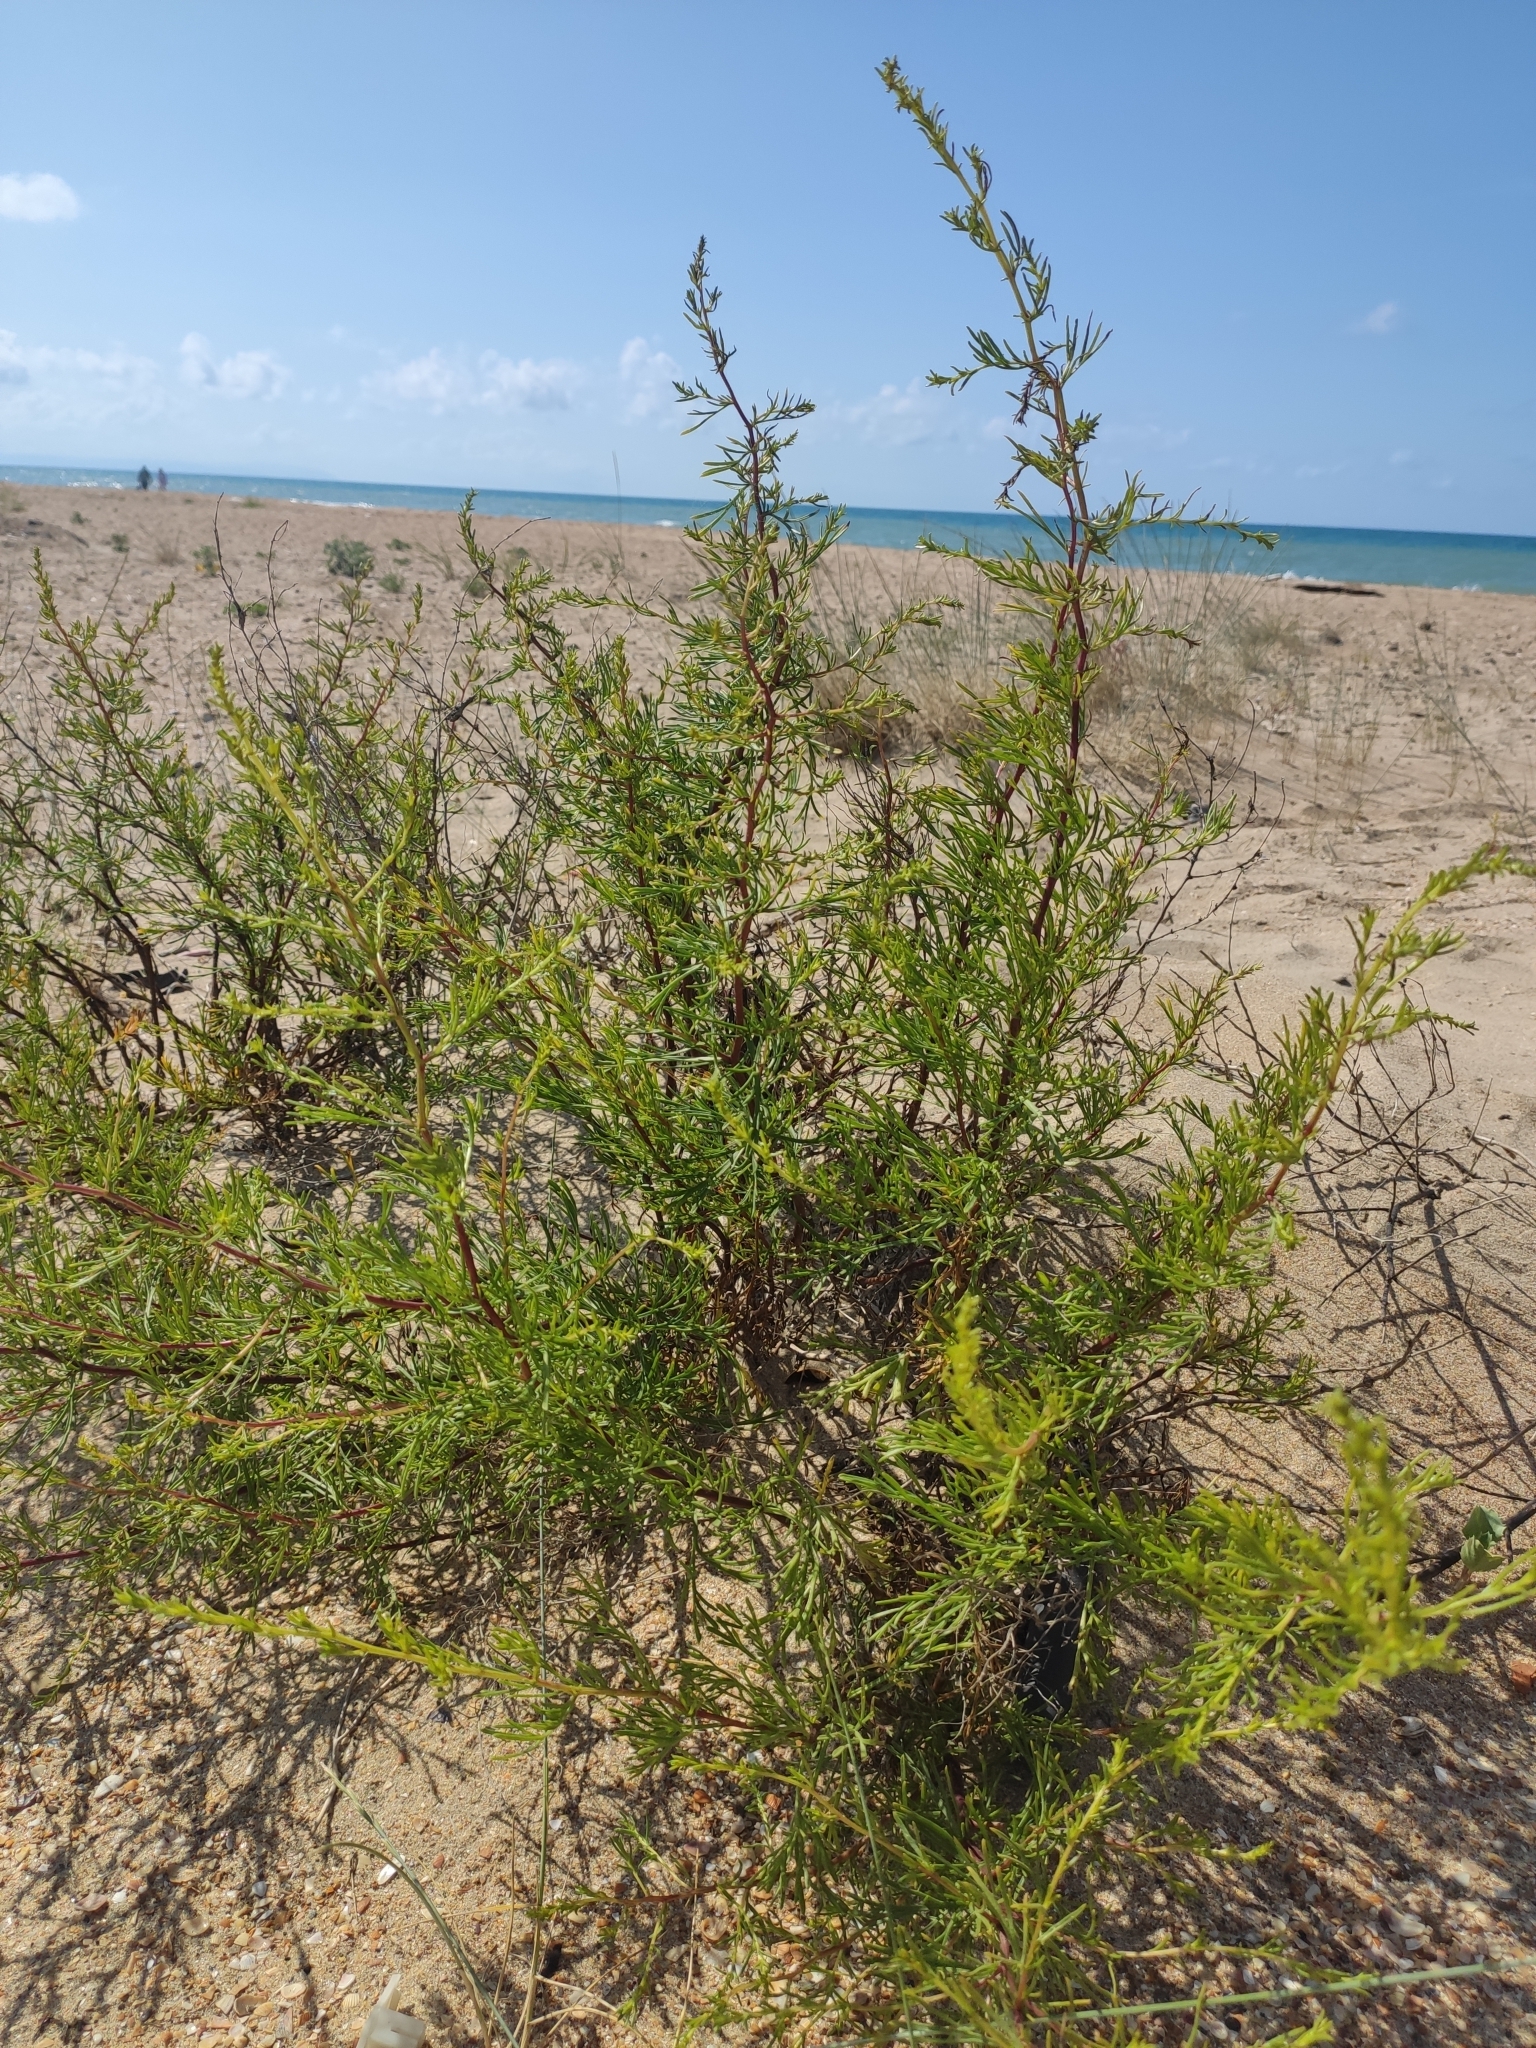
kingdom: Plantae
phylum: Tracheophyta
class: Magnoliopsida
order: Asterales
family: Asteraceae
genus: Artemisia
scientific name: Artemisia arenaria
